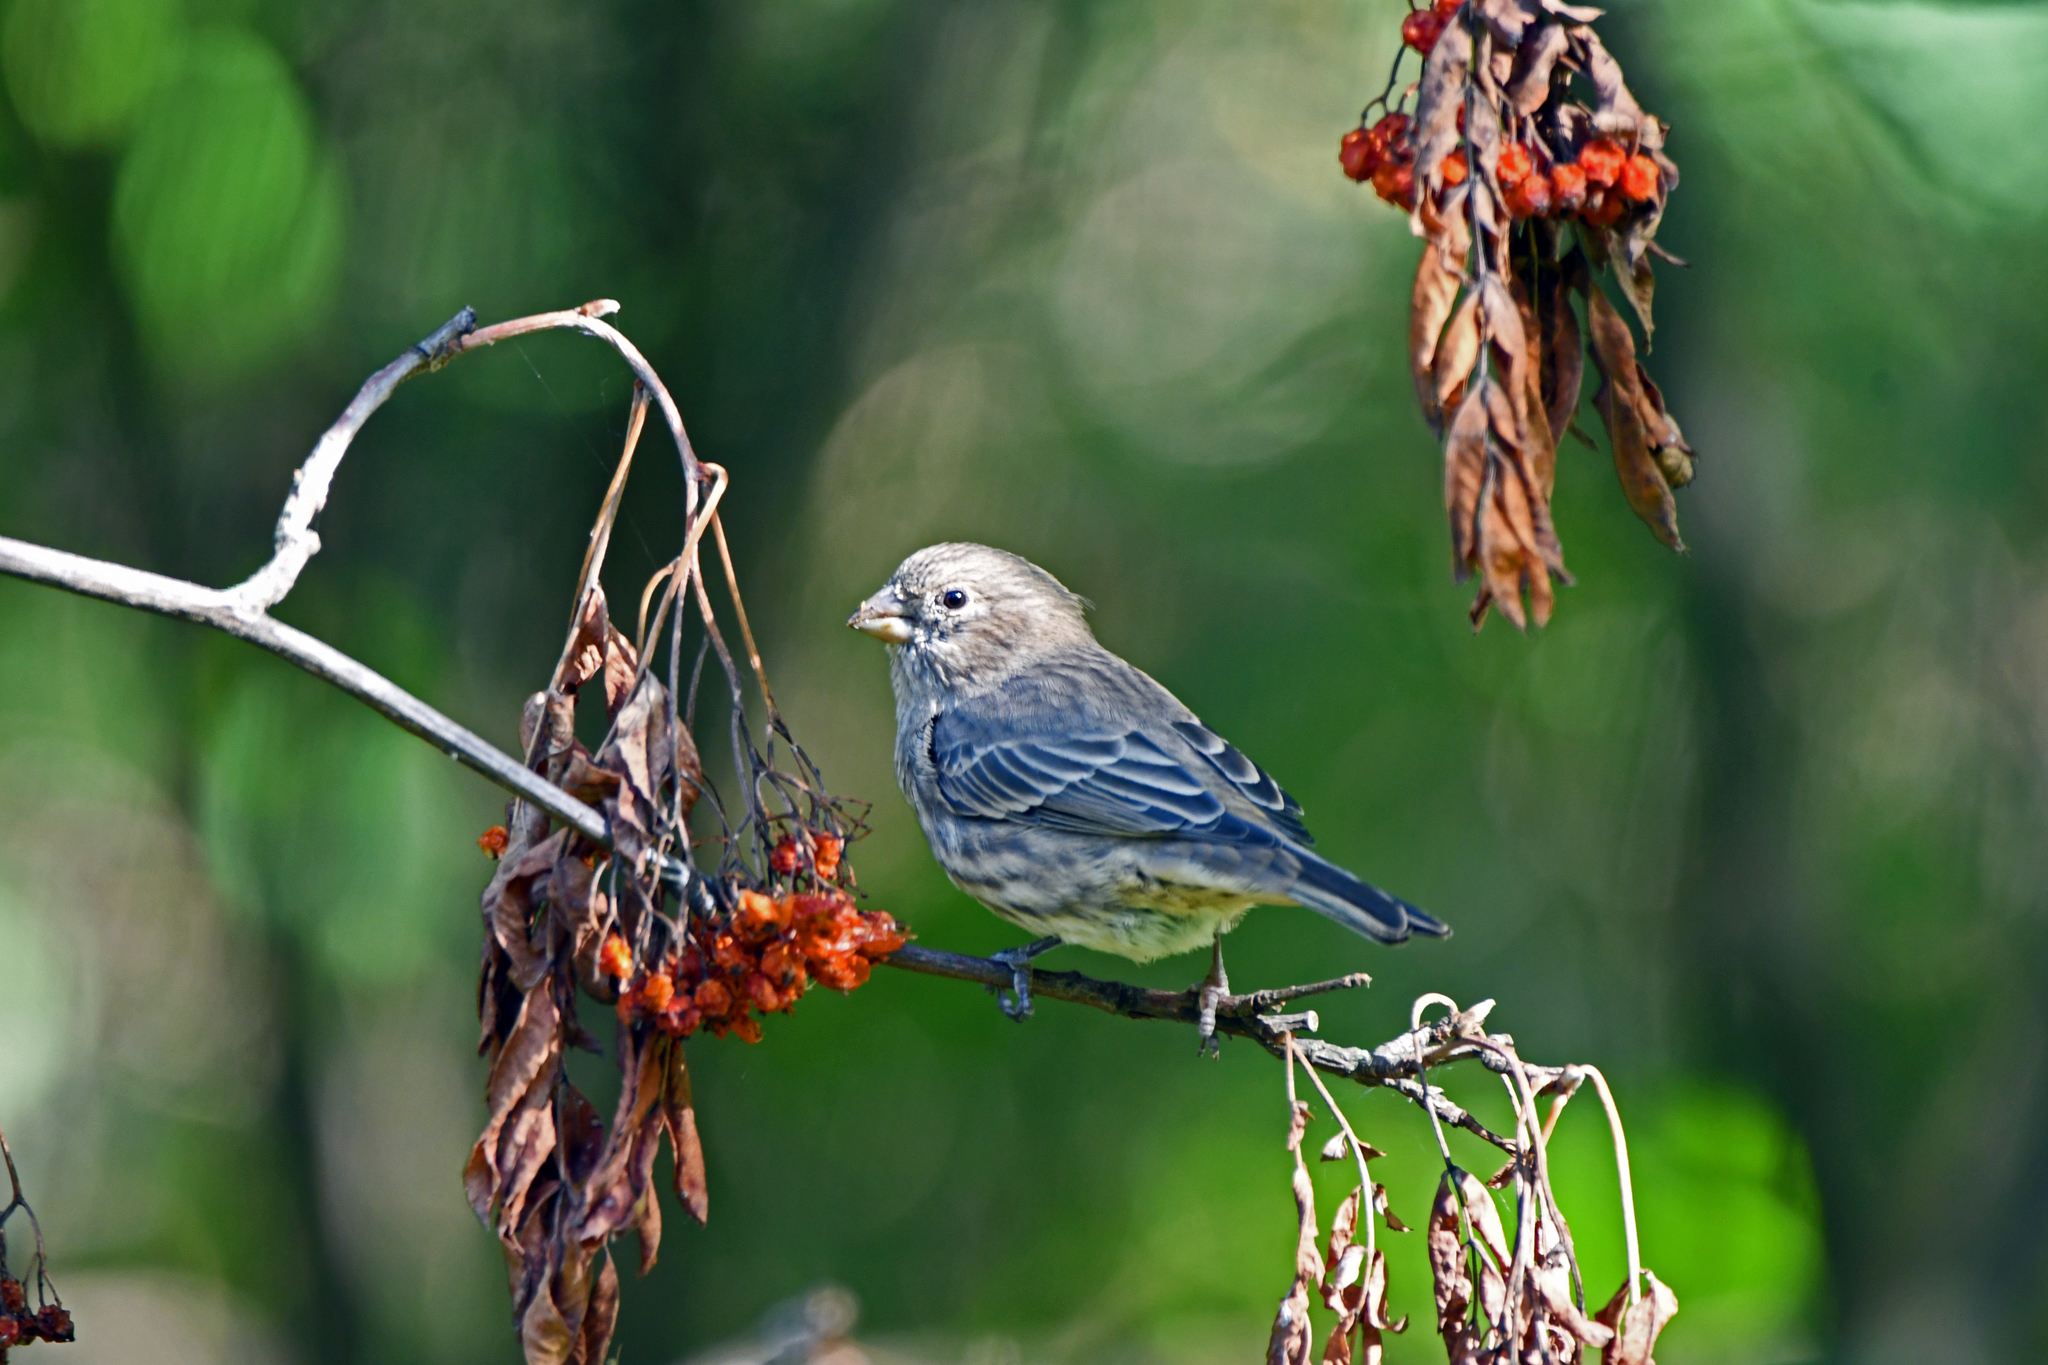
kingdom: Animalia
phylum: Chordata
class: Aves
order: Passeriformes
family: Fringillidae
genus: Haemorhous
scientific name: Haemorhous mexicanus
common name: House finch
